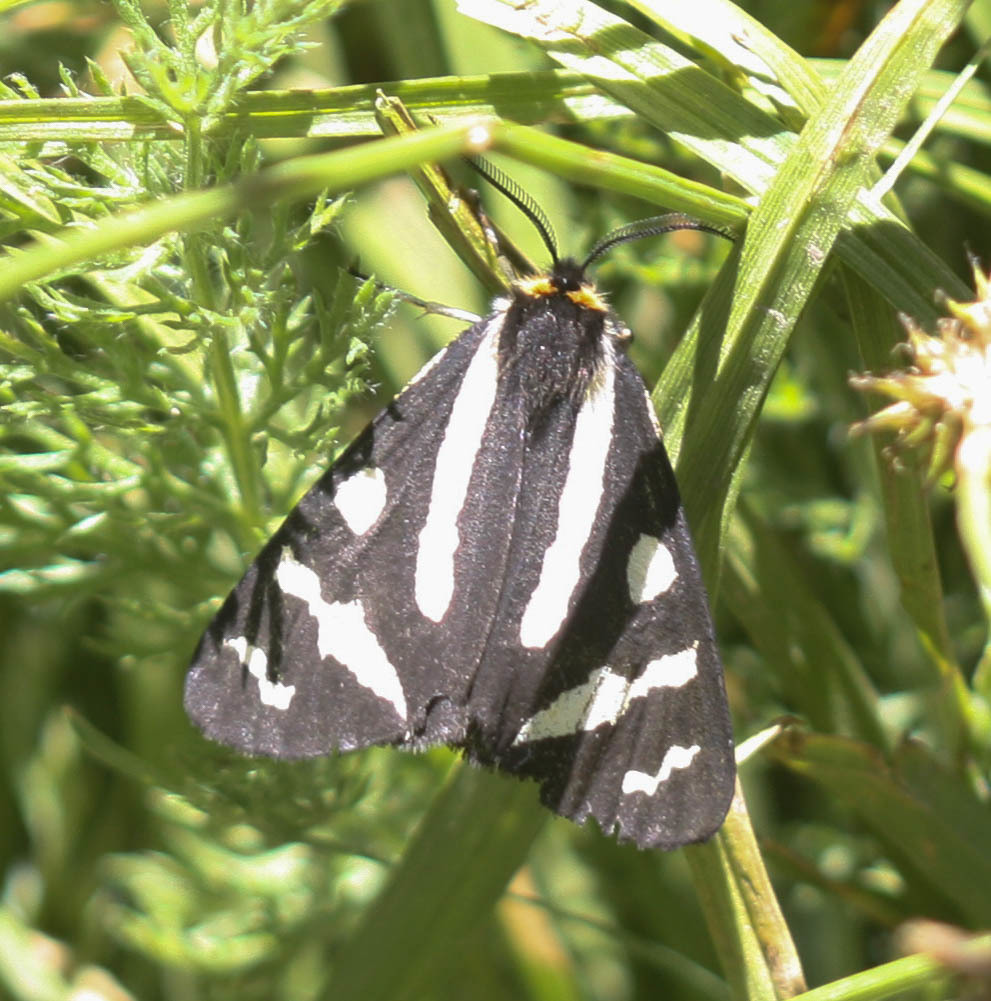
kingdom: Animalia
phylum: Arthropoda
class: Insecta
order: Lepidoptera
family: Erebidae
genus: Parasemia
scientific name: Parasemia plantaginis
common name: Wood tiger
